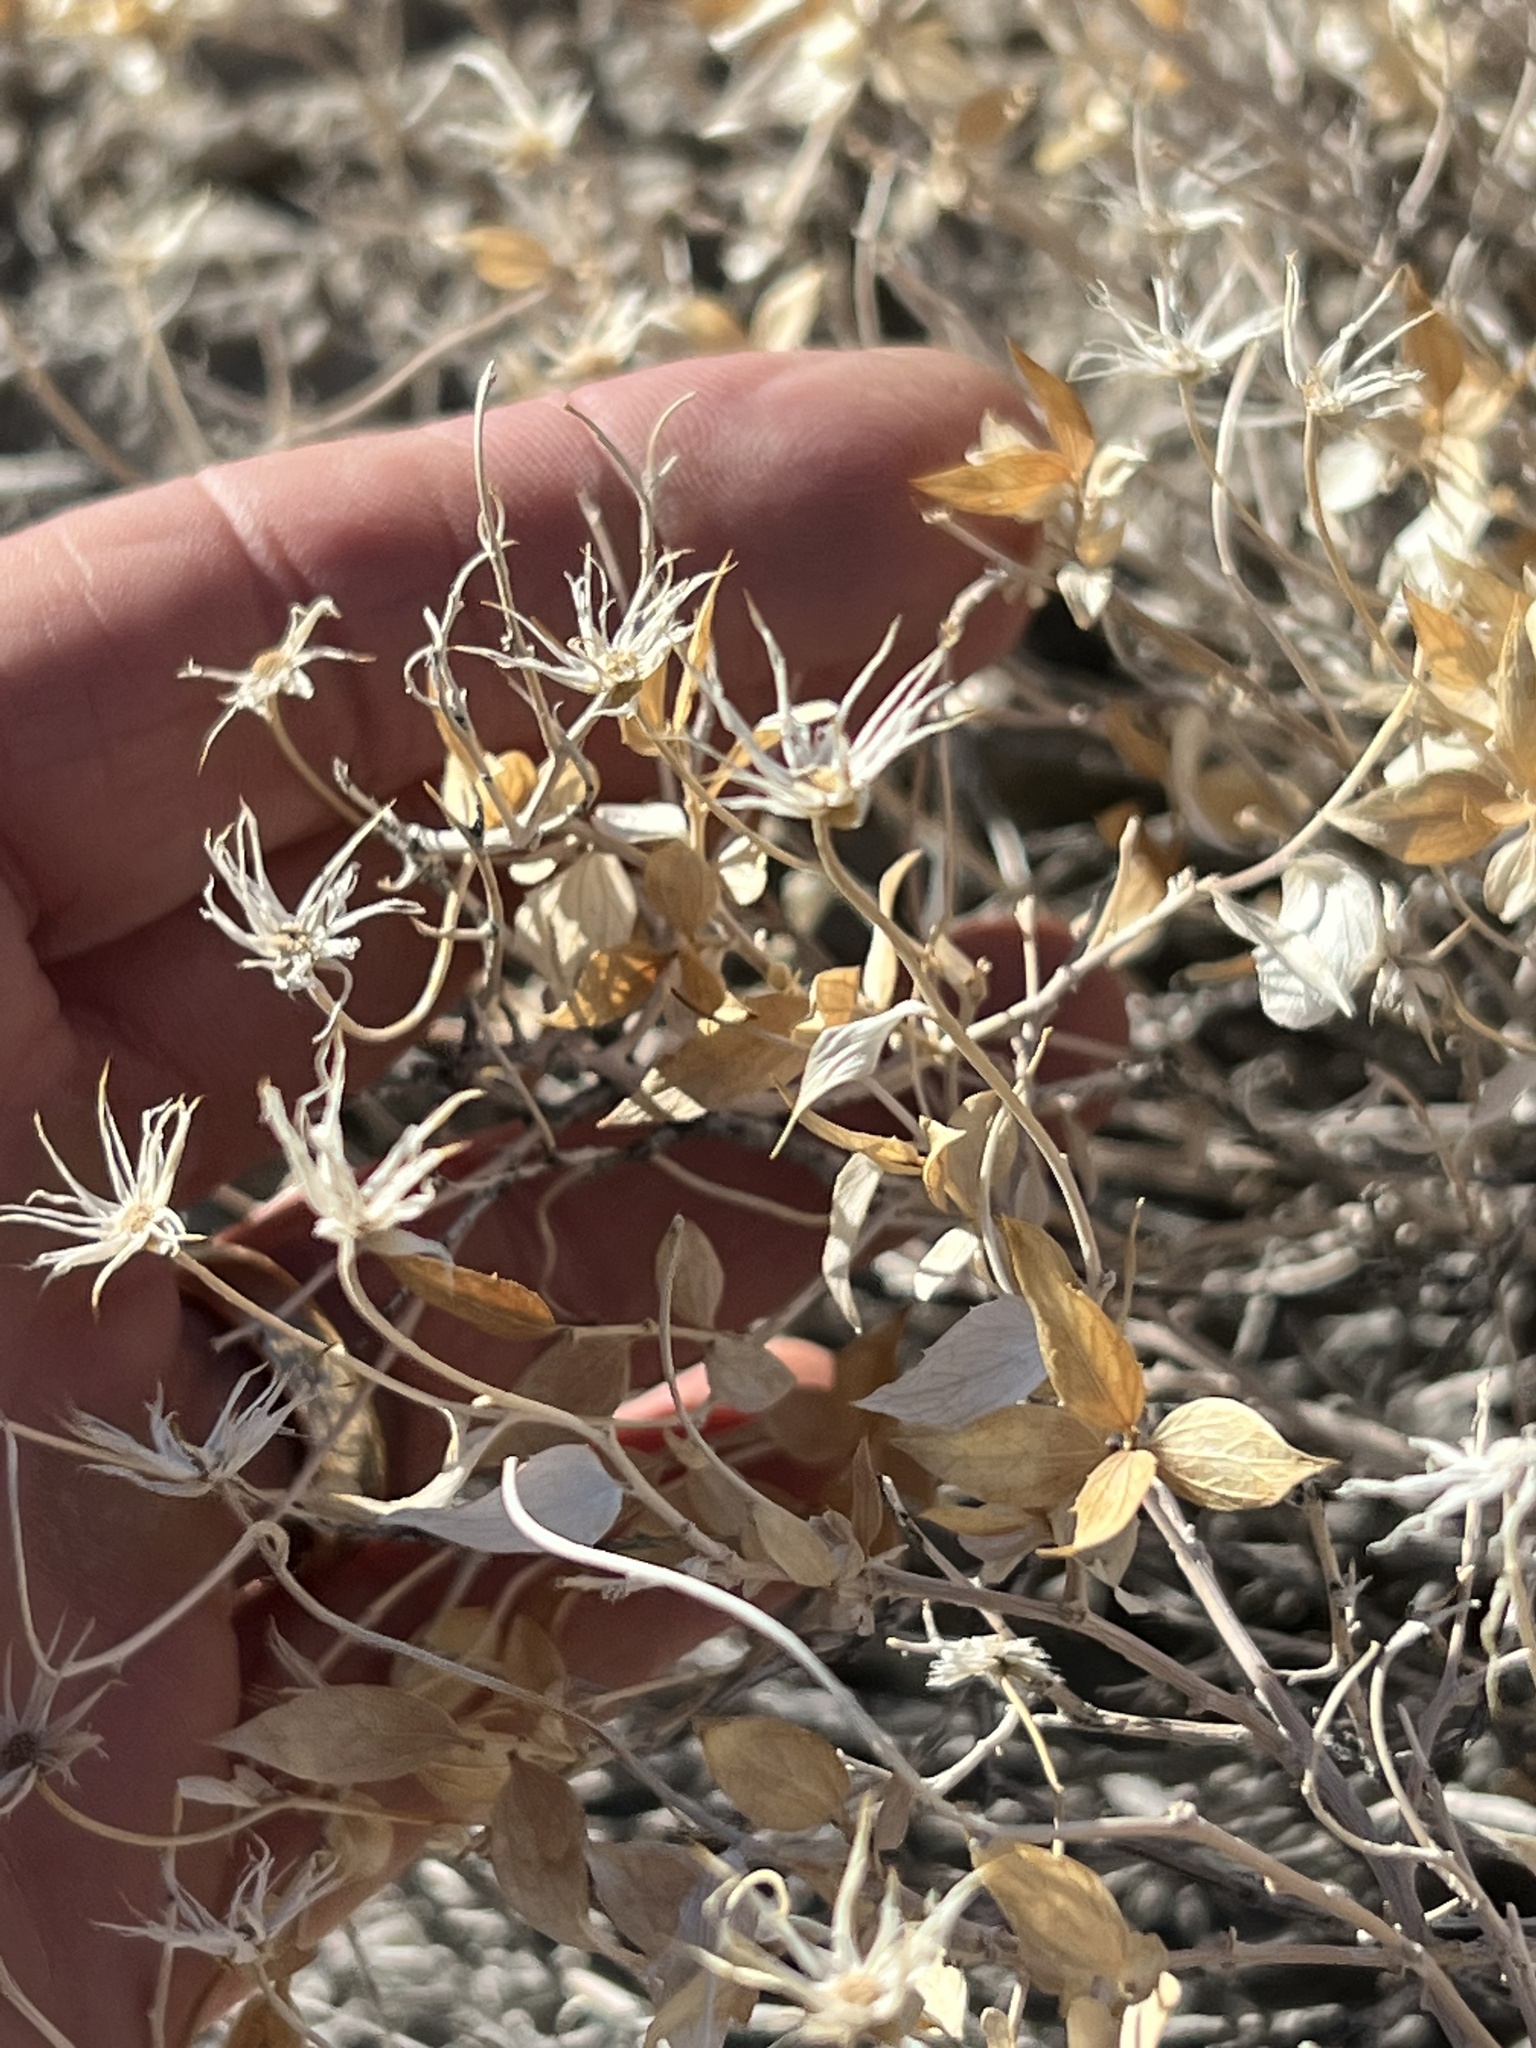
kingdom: Plantae
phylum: Tracheophyta
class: Magnoliopsida
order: Asterales
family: Asteraceae
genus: Brickellia
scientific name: Brickellia atractyloides
